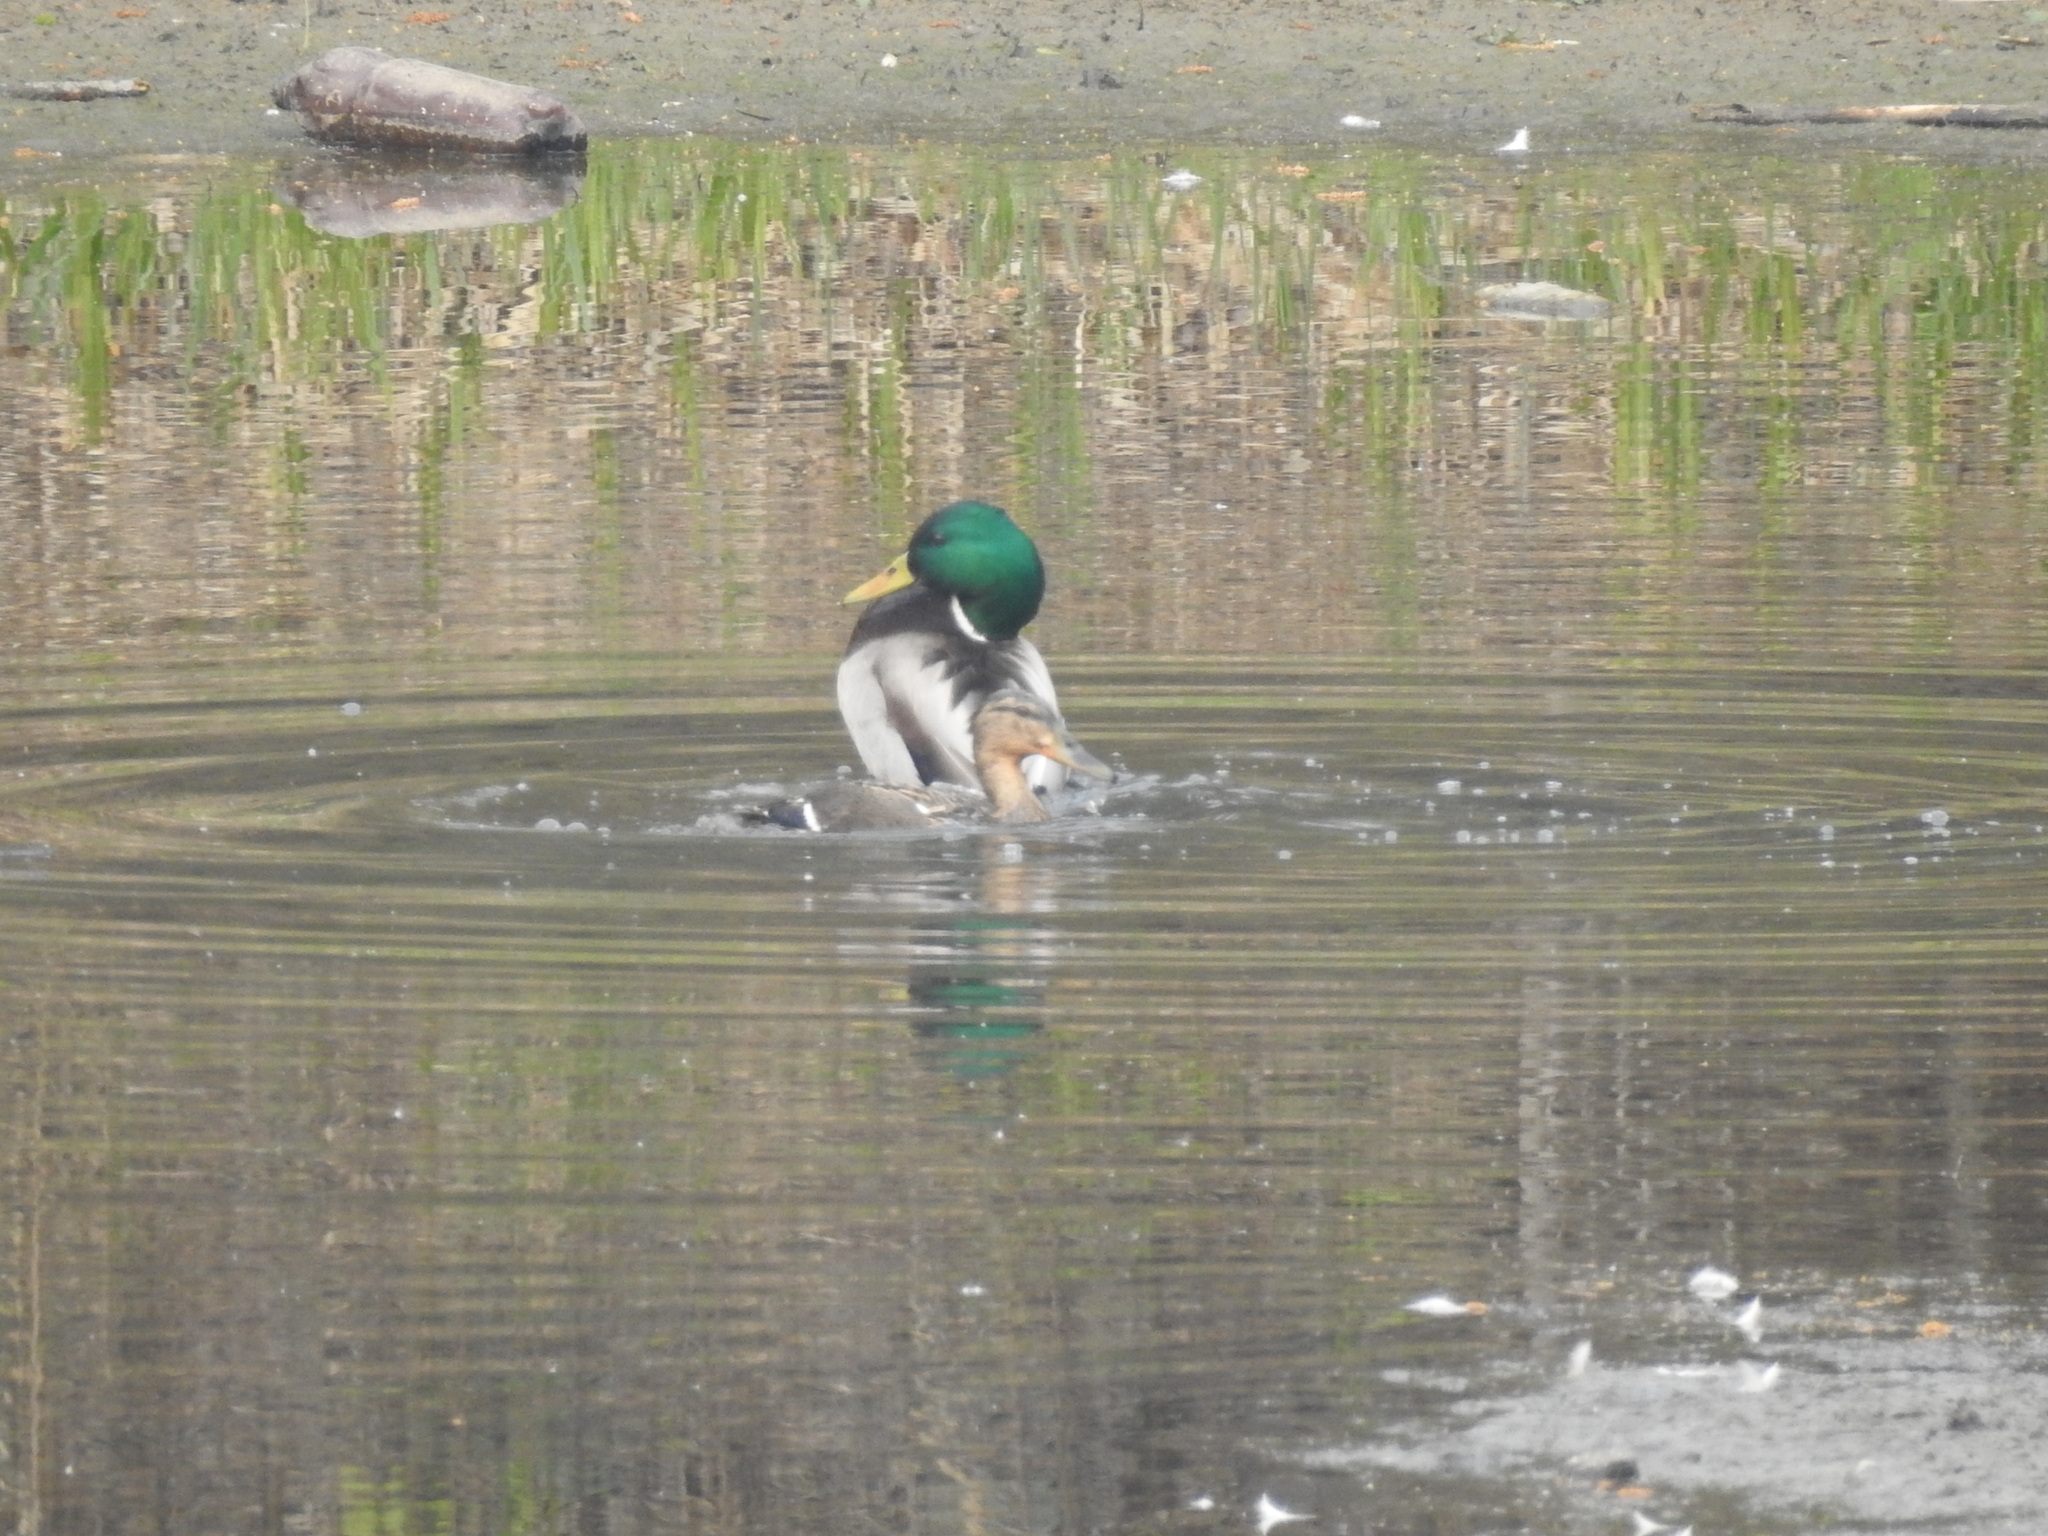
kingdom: Animalia
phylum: Chordata
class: Aves
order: Anseriformes
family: Anatidae
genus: Anas
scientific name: Anas platyrhynchos
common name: Mallard
